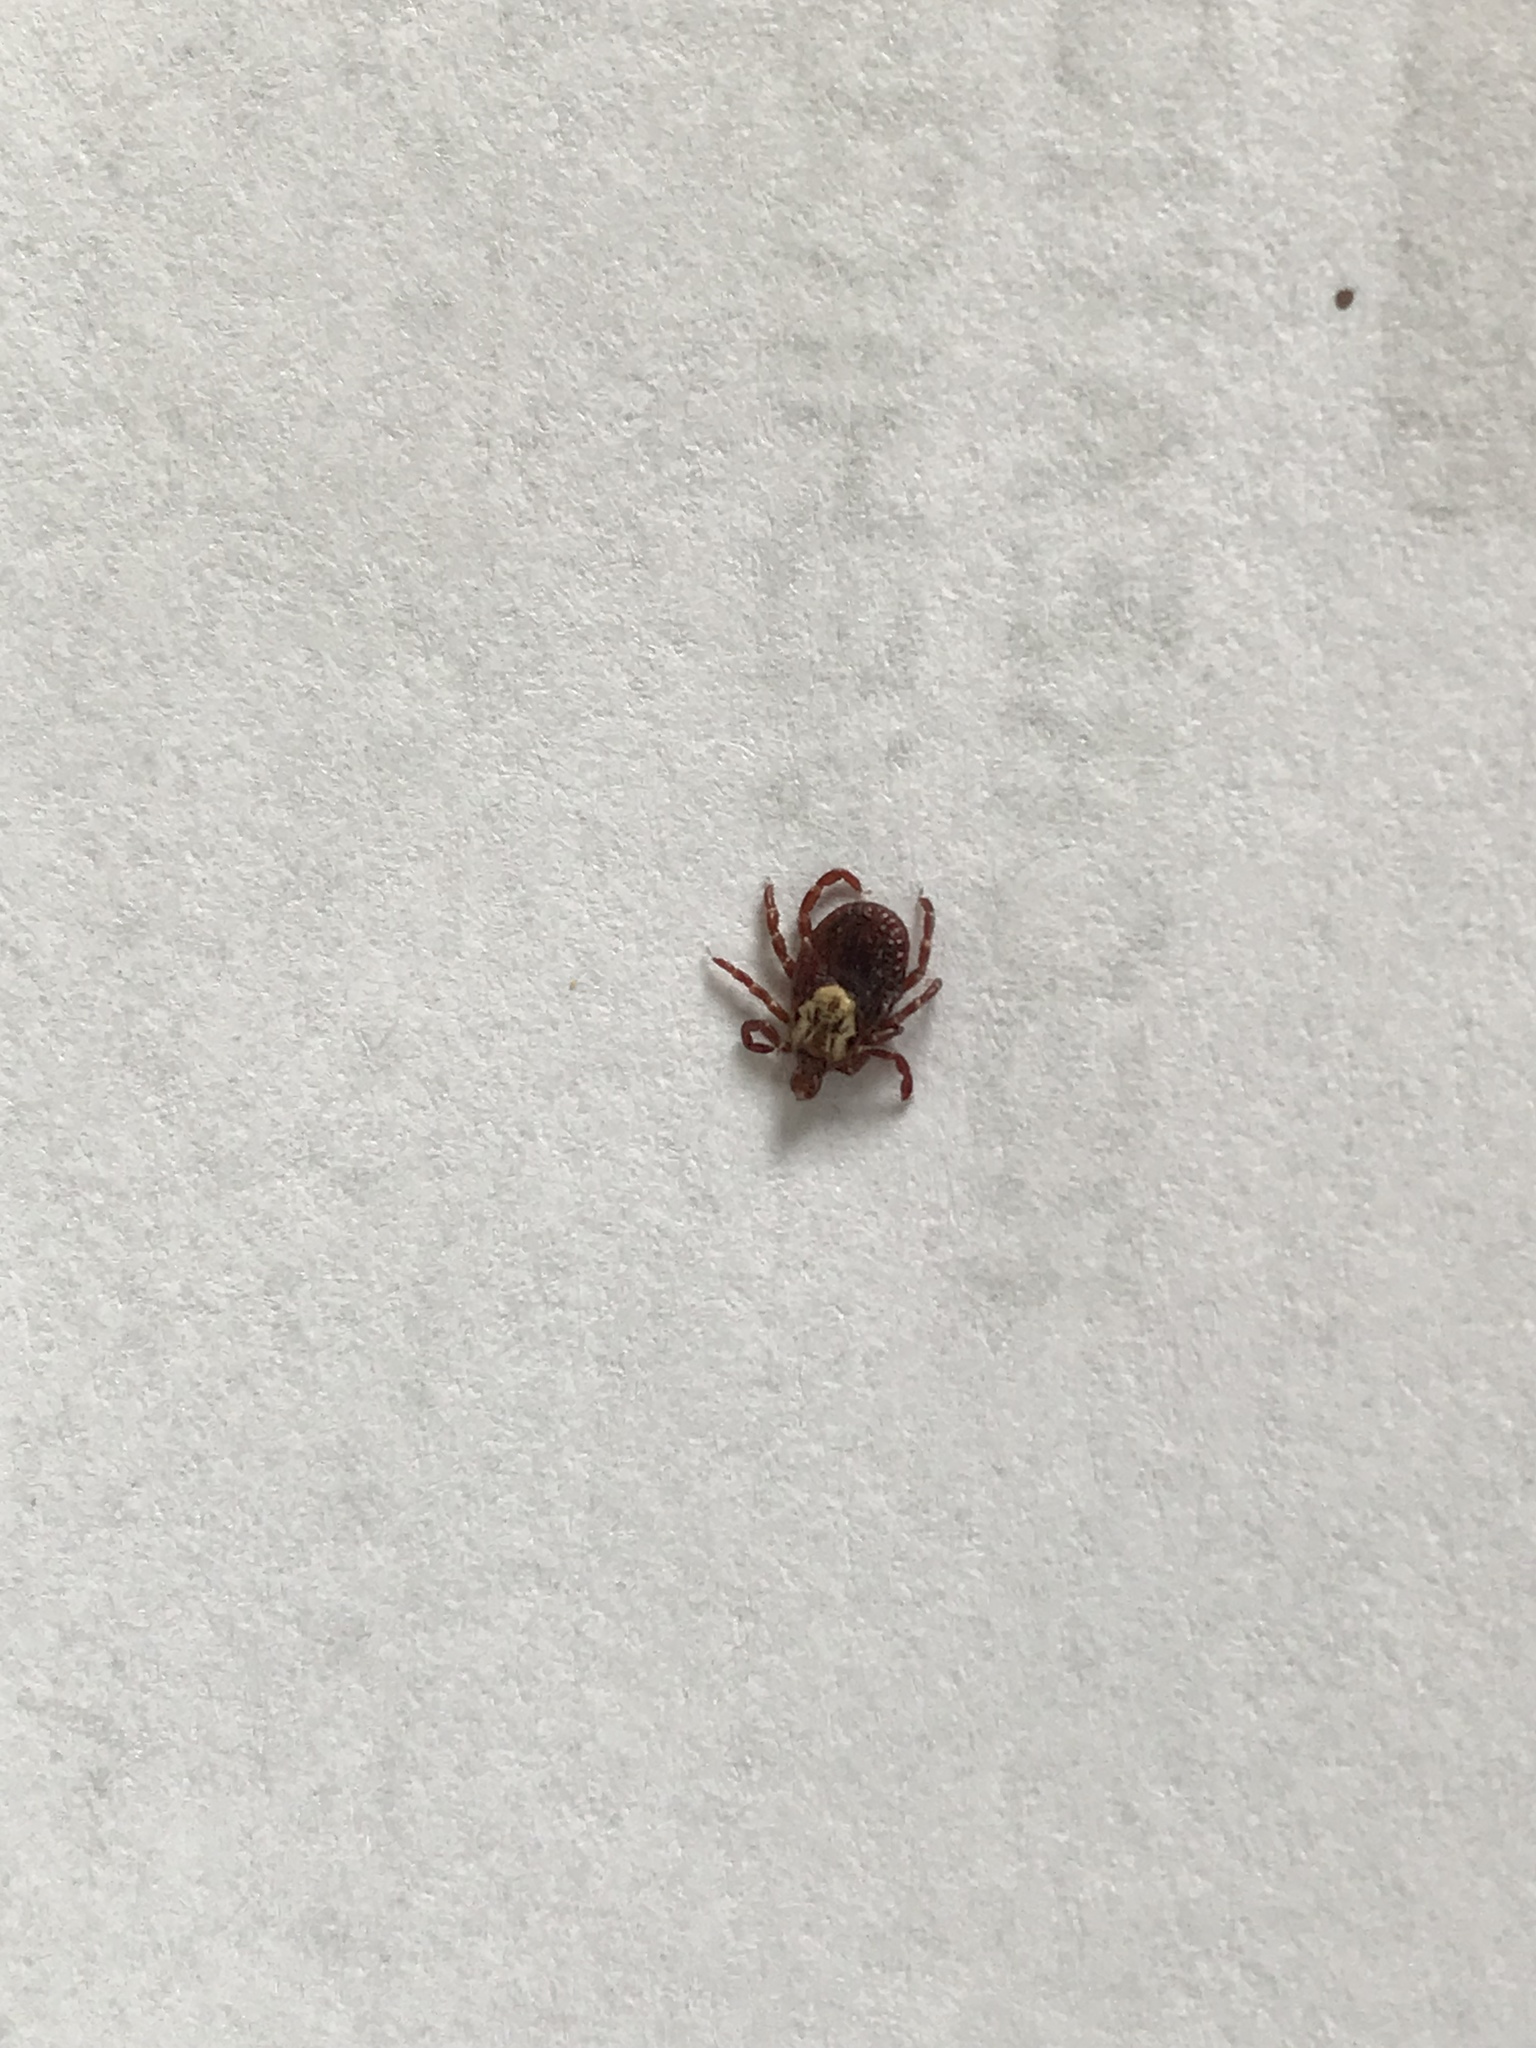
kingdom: Animalia
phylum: Arthropoda
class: Arachnida
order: Ixodida
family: Ixodidae
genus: Dermacentor
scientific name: Dermacentor variabilis
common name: American dog tick
